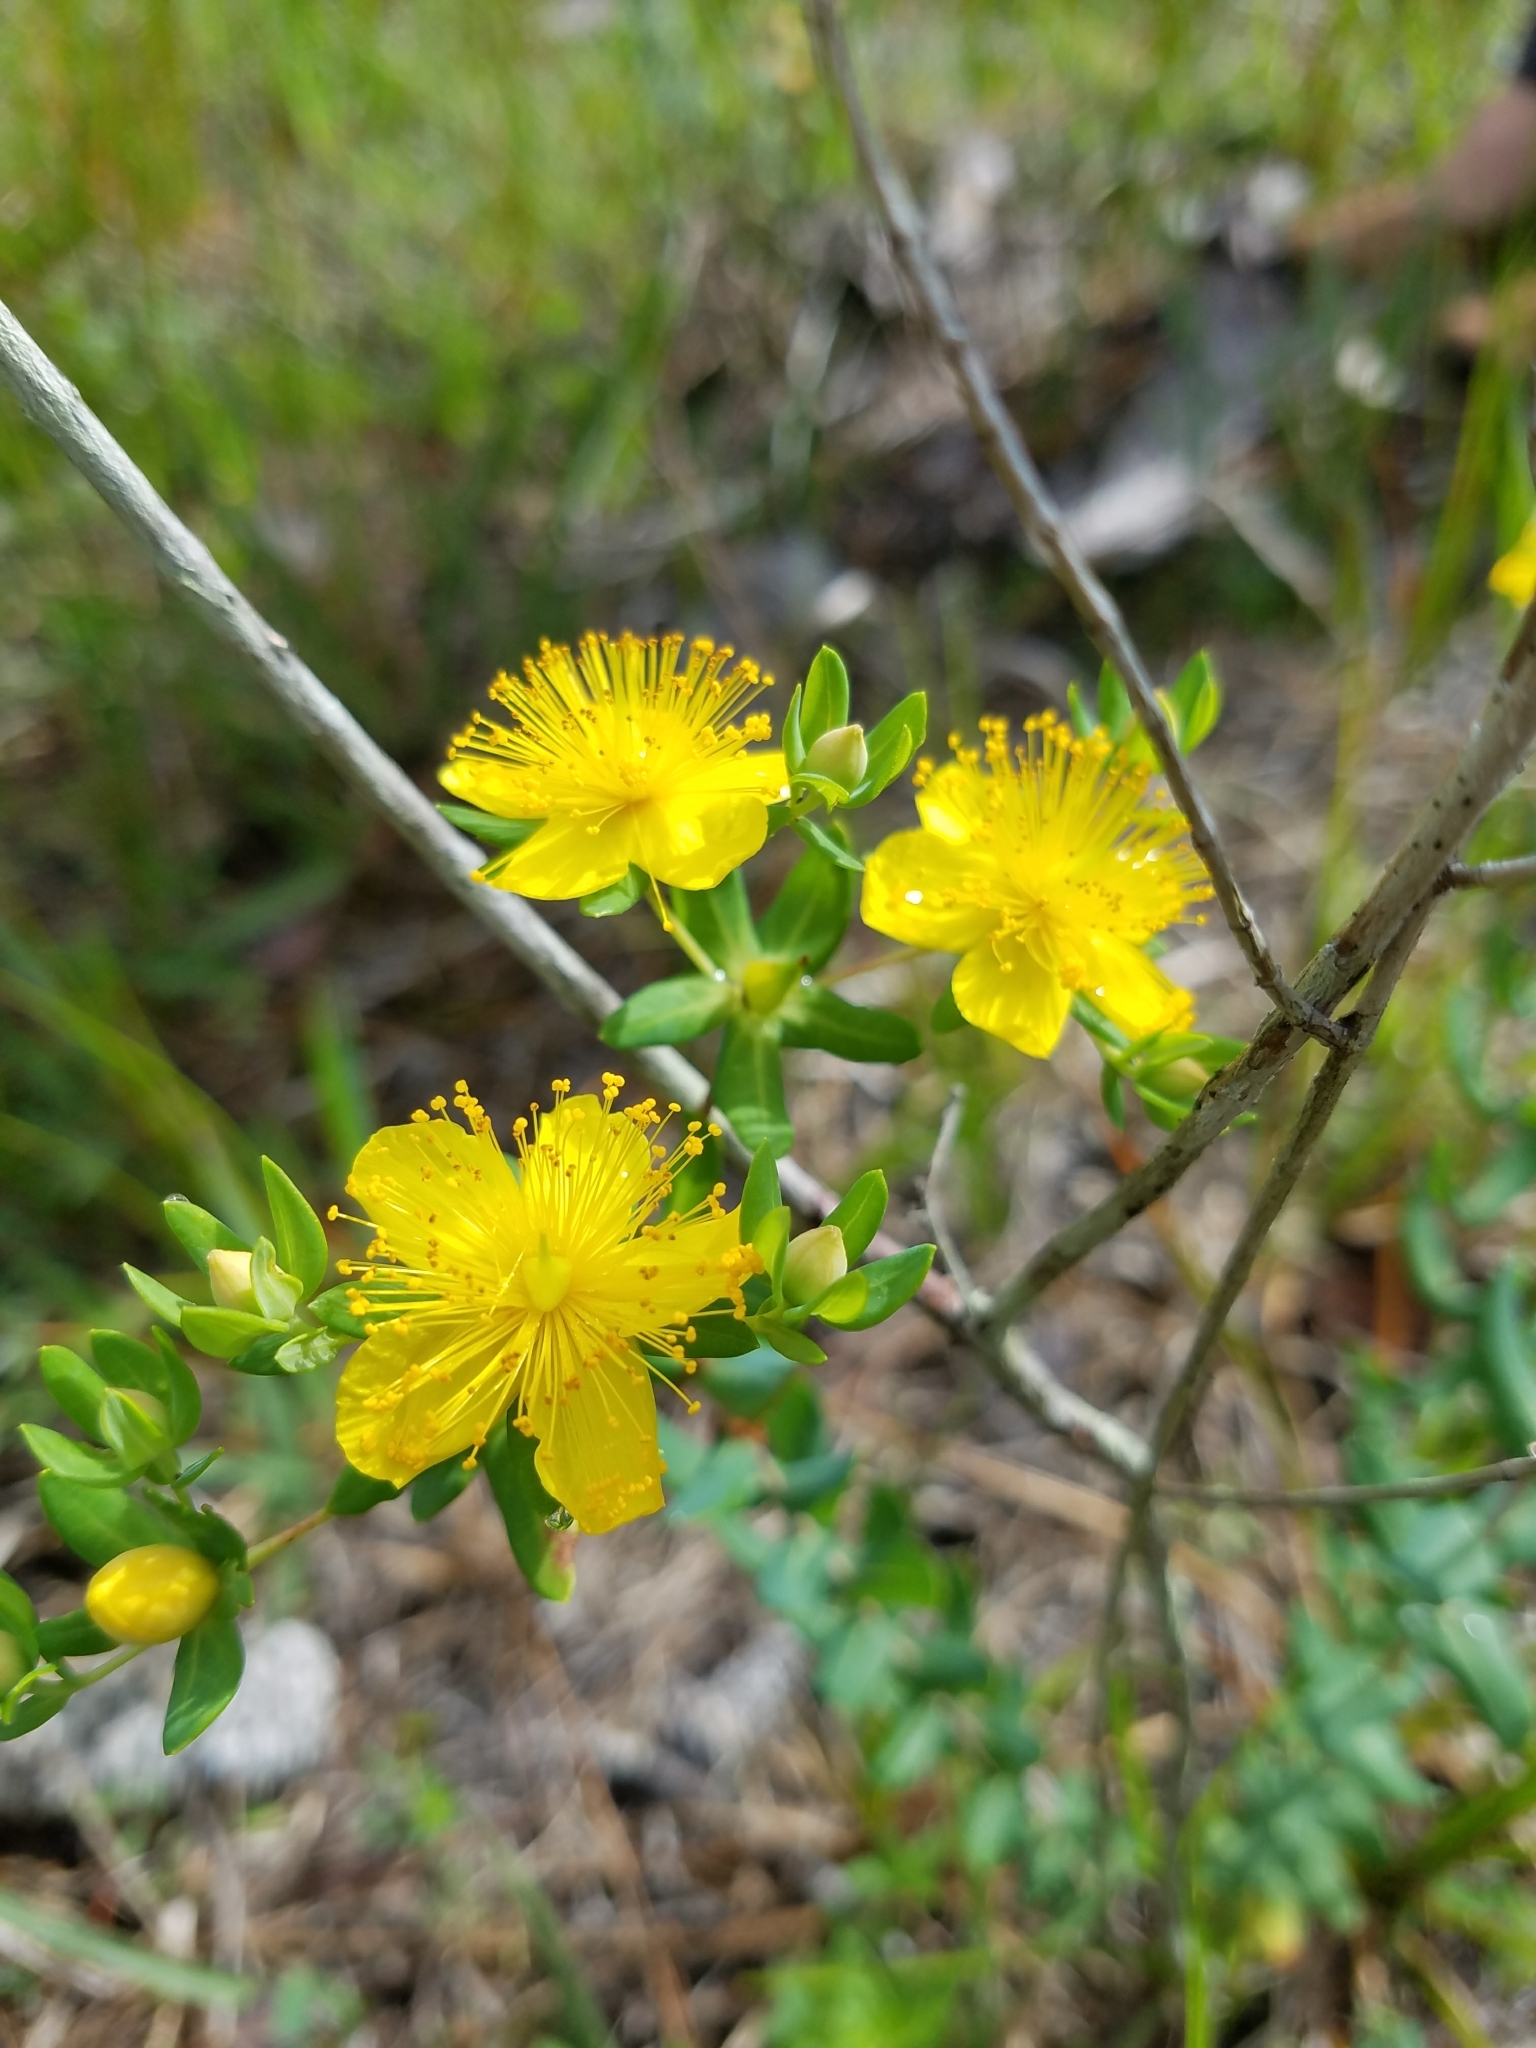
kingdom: Plantae
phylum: Tracheophyta
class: Magnoliopsida
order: Malpighiales
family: Hypericaceae
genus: Hypericum
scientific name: Hypericum myrtifolium
